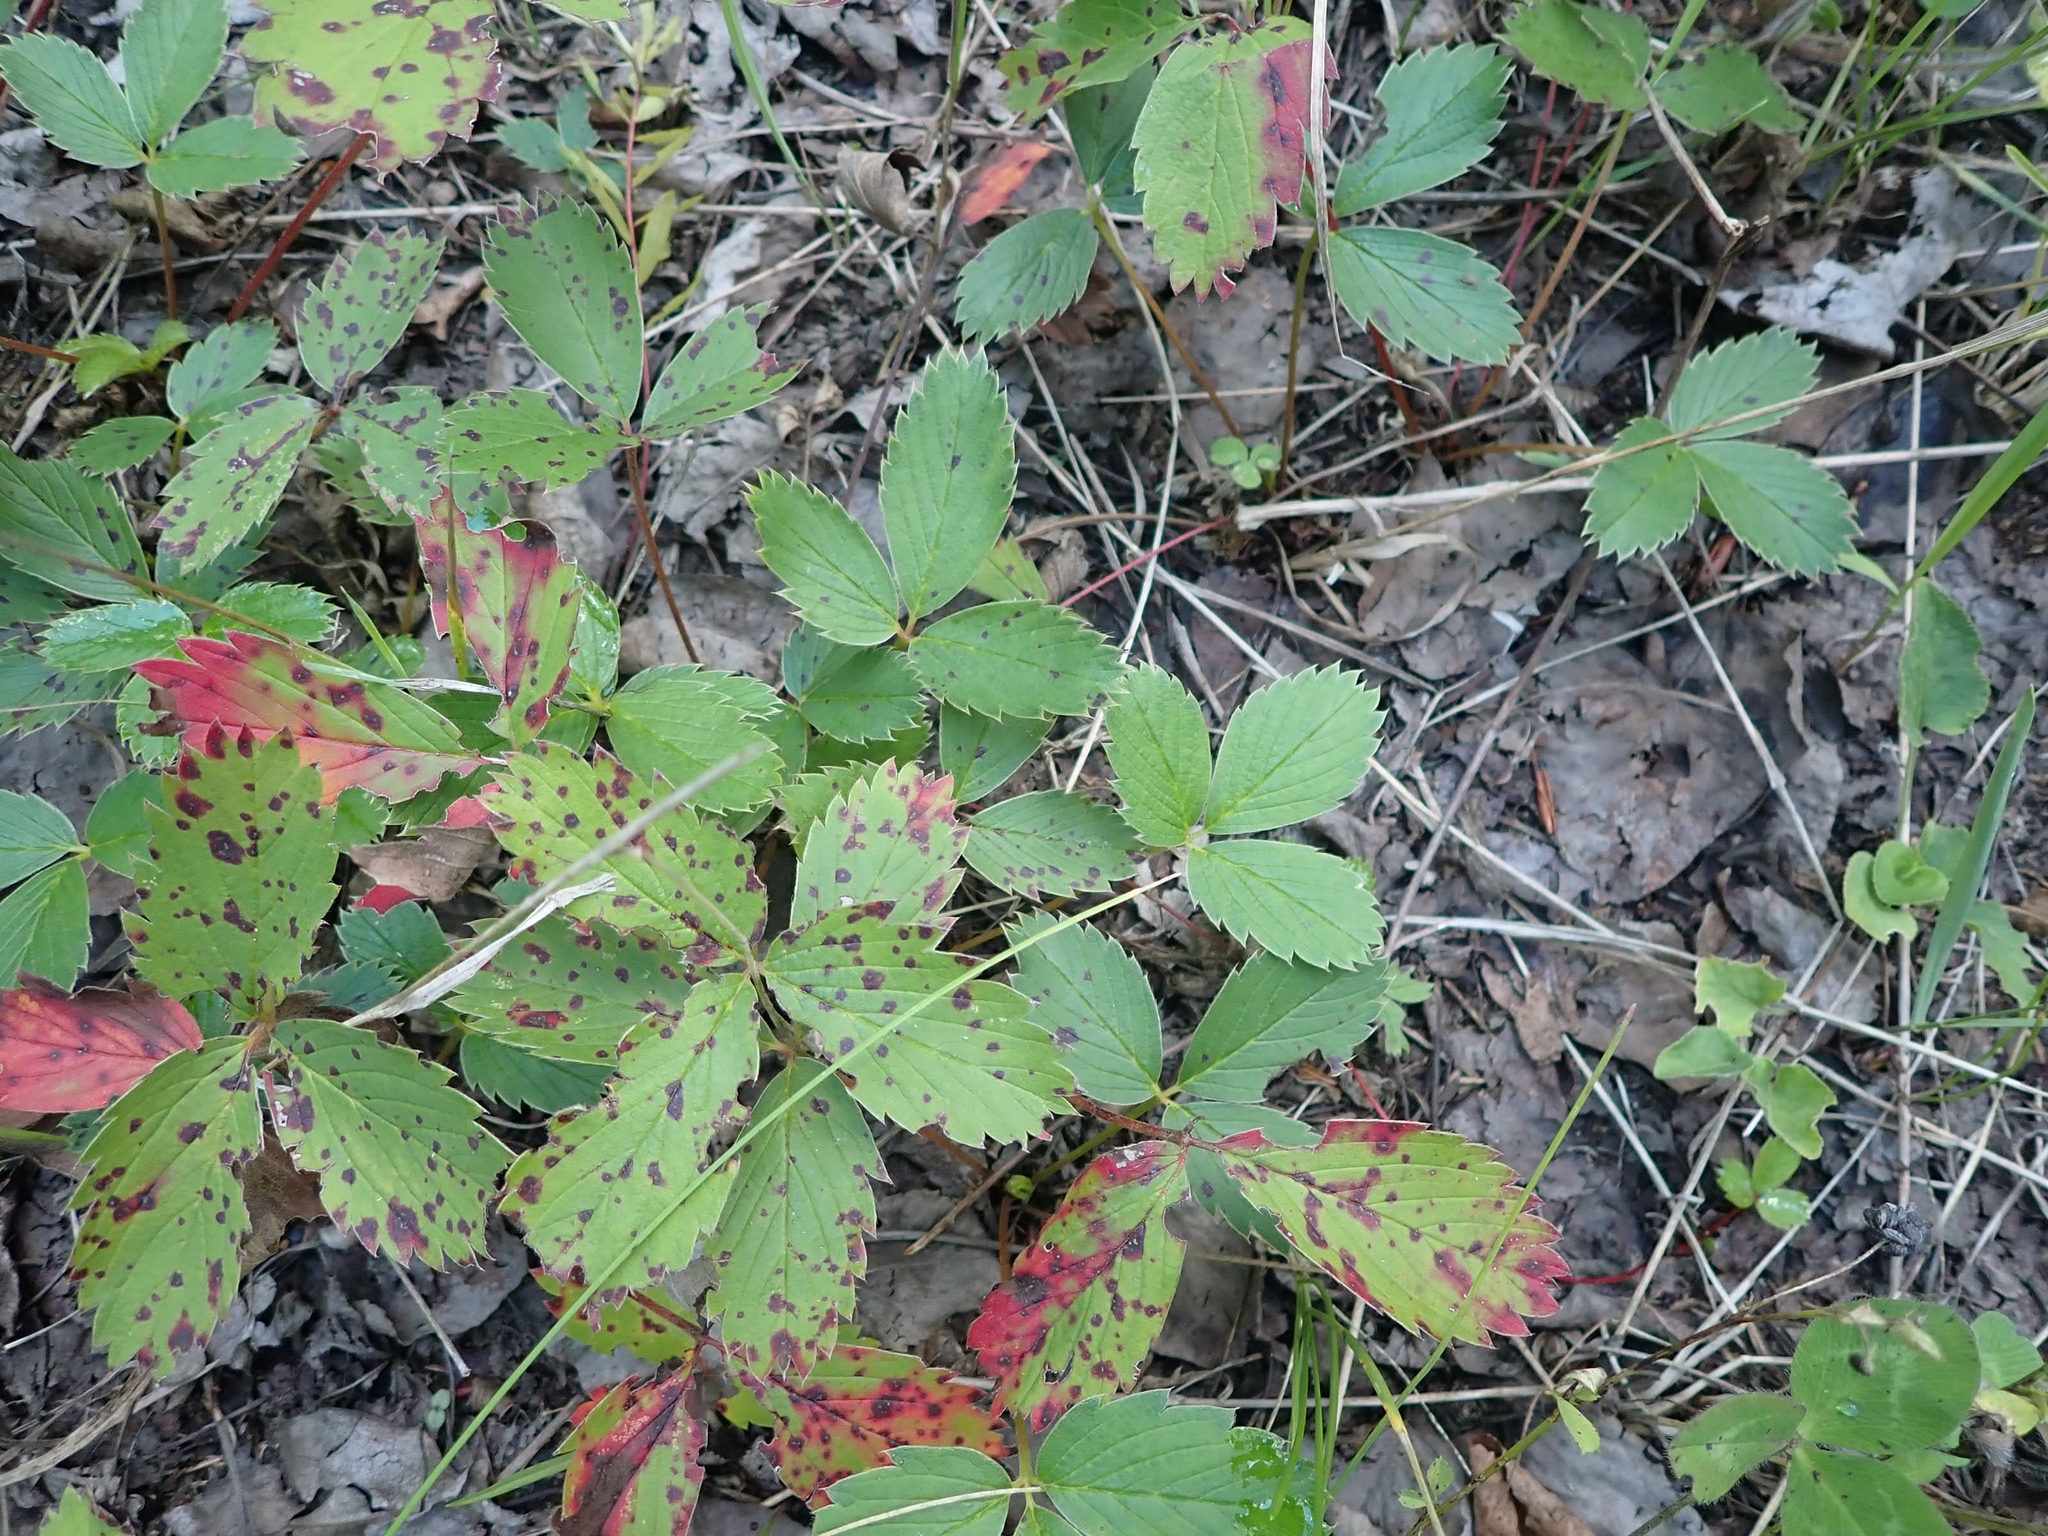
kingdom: Plantae
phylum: Tracheophyta
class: Magnoliopsida
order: Rosales
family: Rosaceae
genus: Fragaria
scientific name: Fragaria virginiana
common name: Thickleaved wild strawberry
